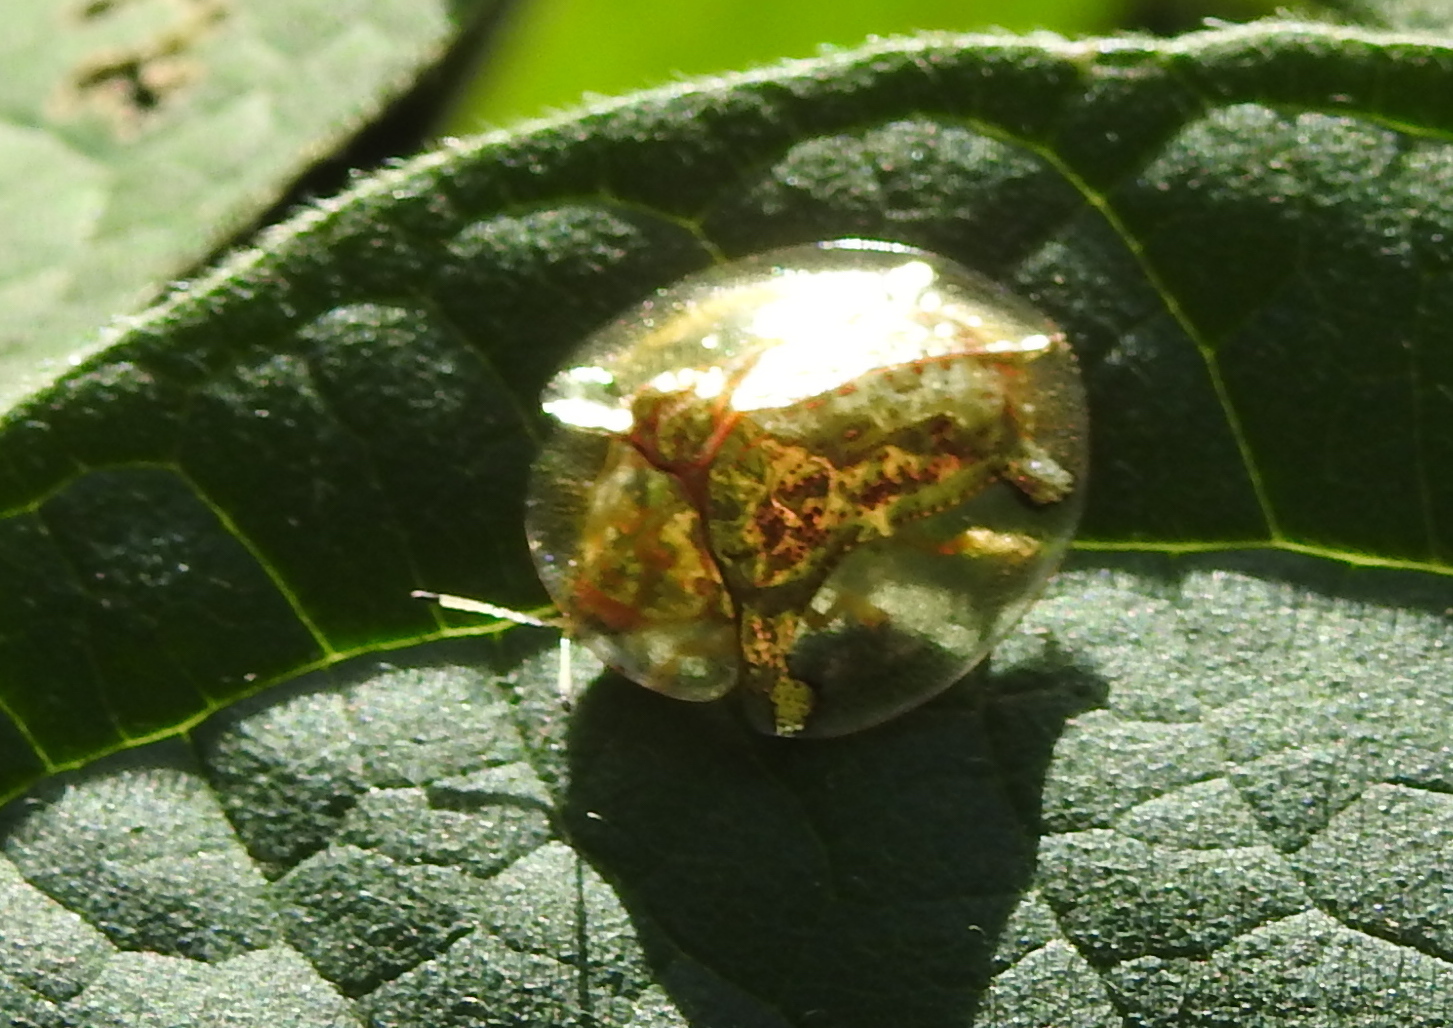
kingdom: Animalia
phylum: Arthropoda
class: Insecta
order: Coleoptera
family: Chrysomelidae
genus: Aspidimorpha
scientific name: Aspidimorpha sanctaecrucis
